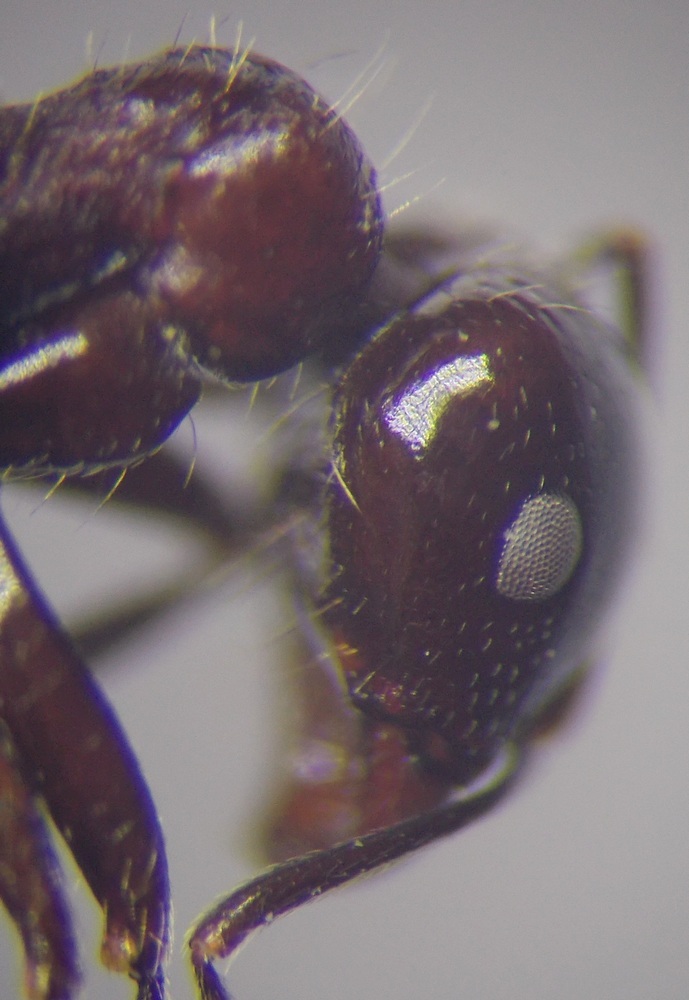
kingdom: Animalia
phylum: Arthropoda
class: Insecta
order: Hymenoptera
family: Formicidae
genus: Messor
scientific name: Messor denticulatus
